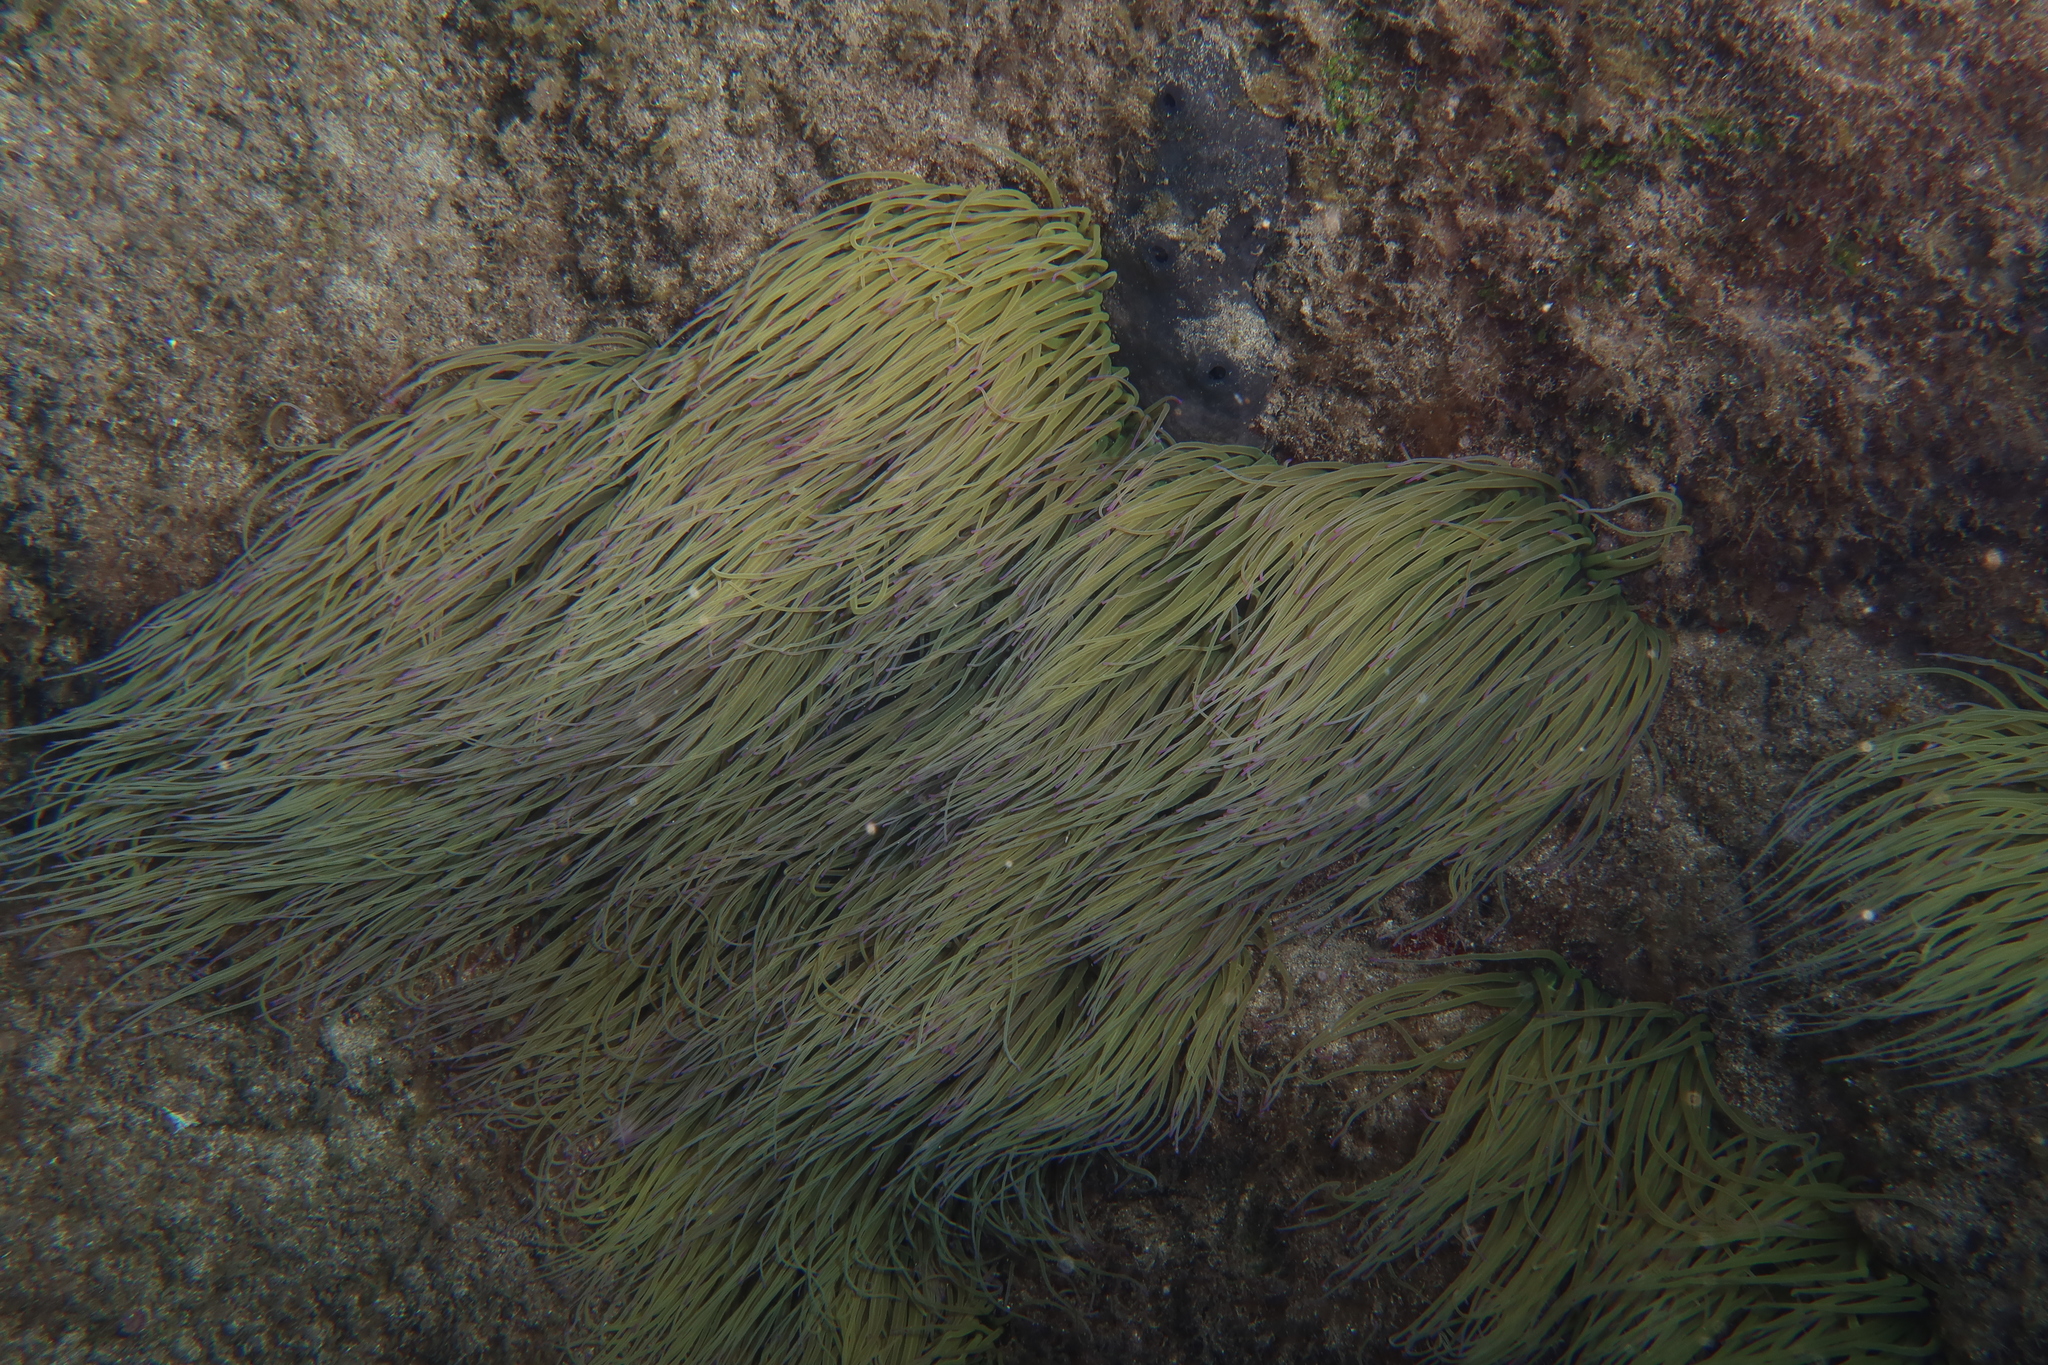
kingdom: Animalia
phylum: Cnidaria
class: Anthozoa
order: Actiniaria
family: Actiniidae
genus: Anemonia
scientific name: Anemonia viridis
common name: Snakelocks anemone
